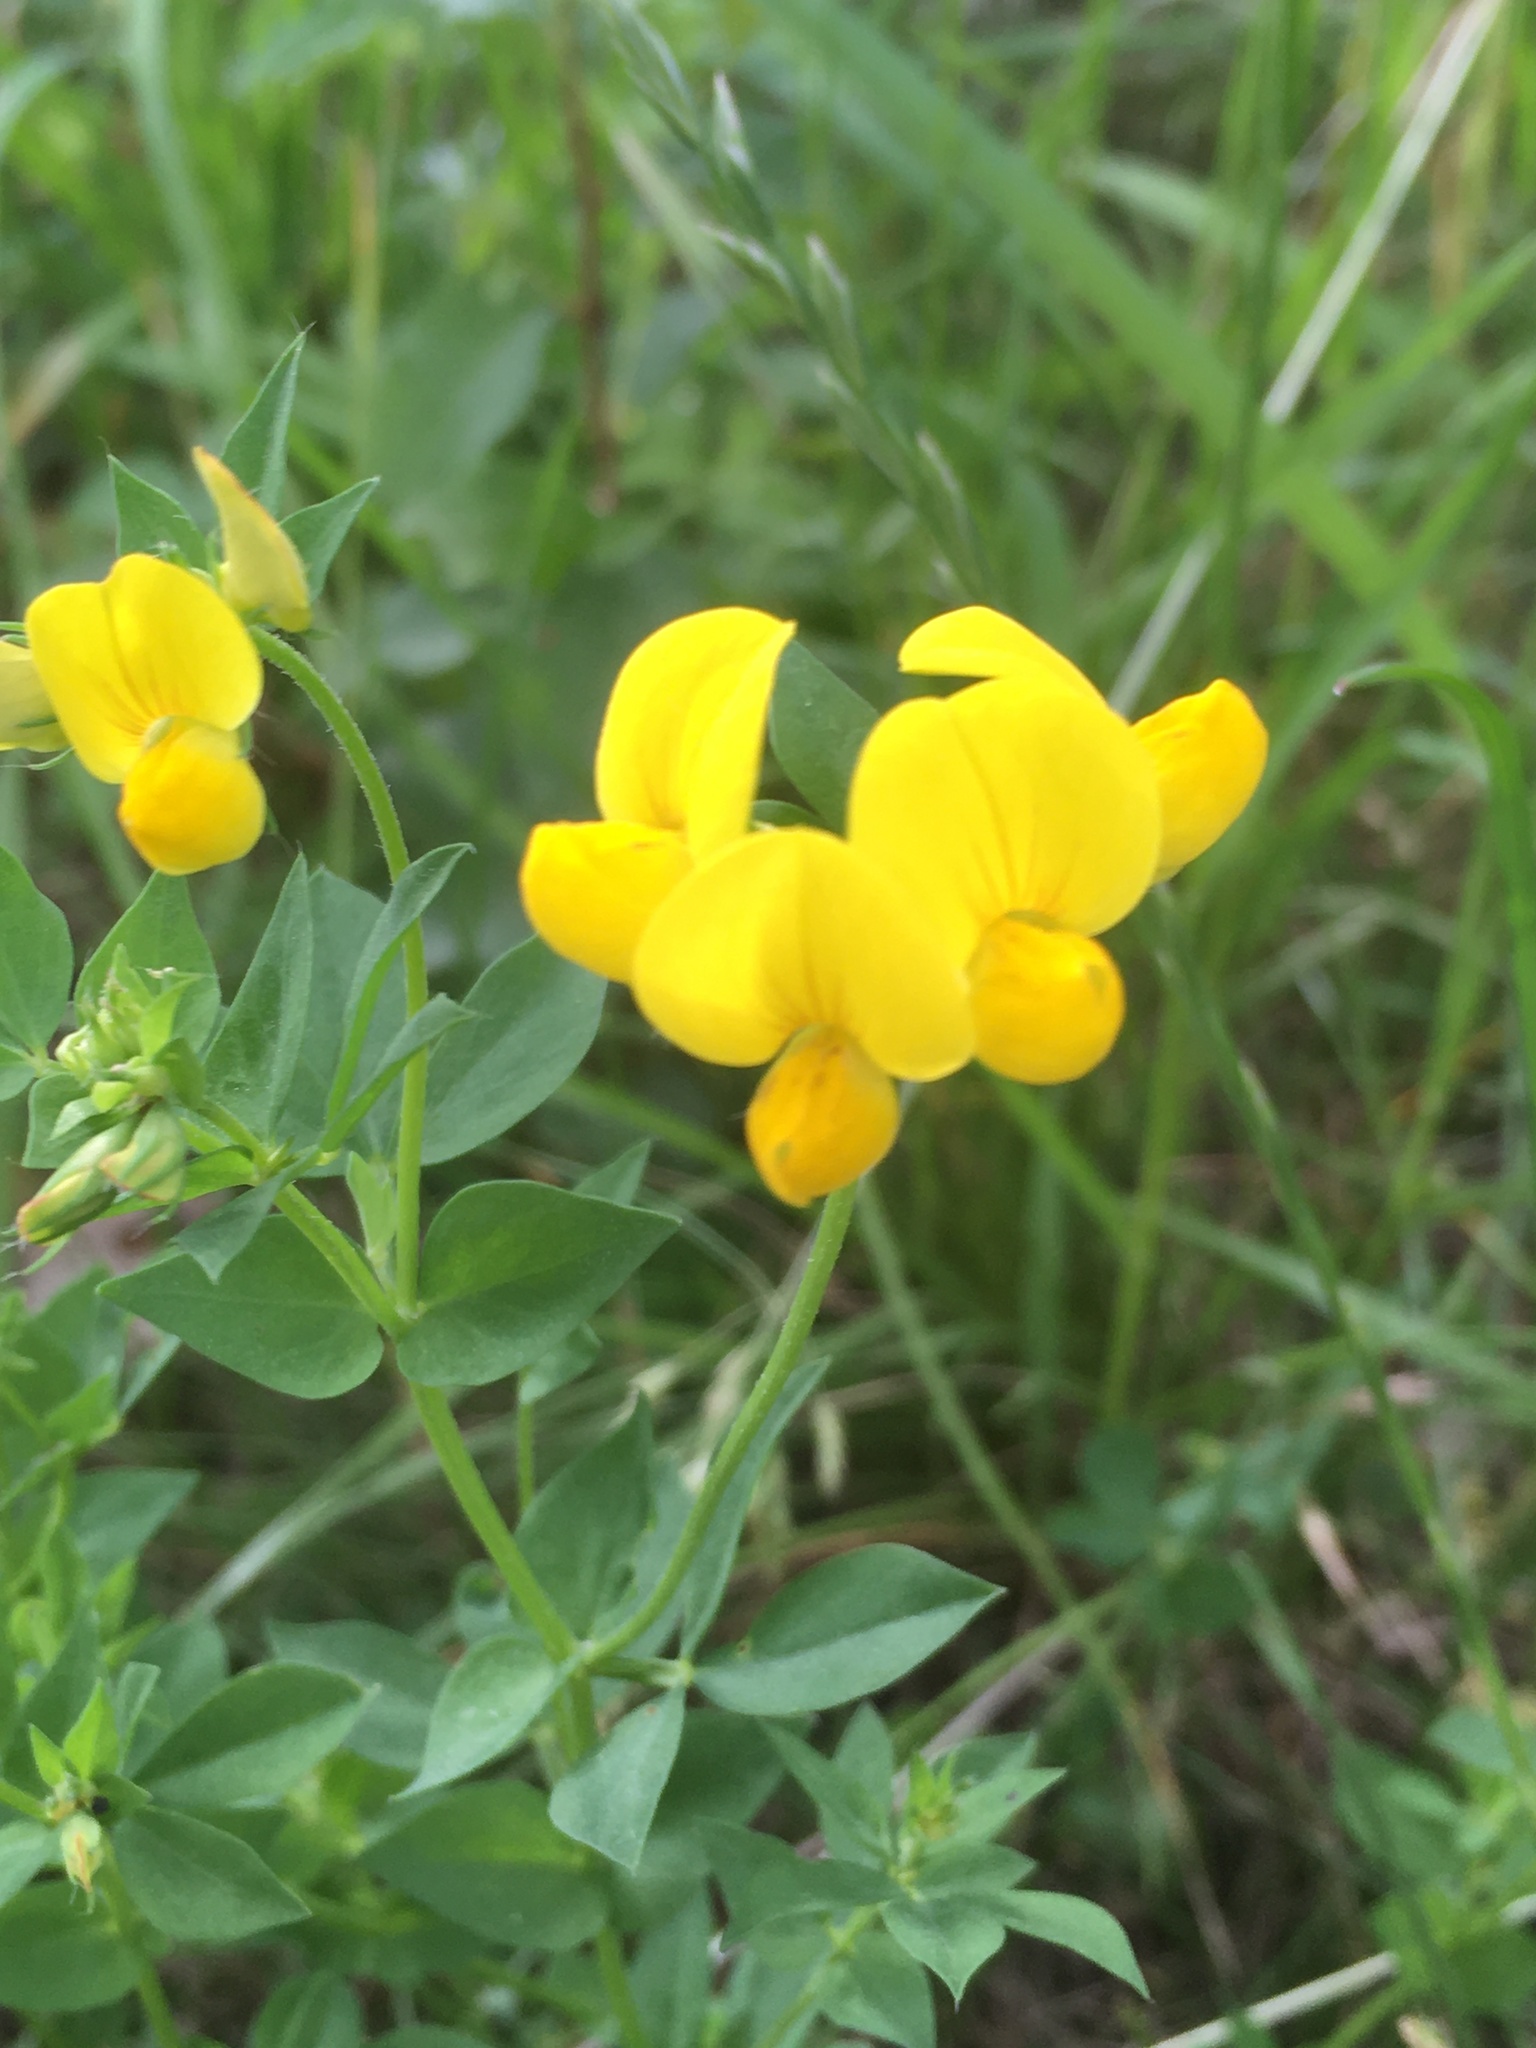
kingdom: Plantae
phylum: Tracheophyta
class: Magnoliopsida
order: Fabales
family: Fabaceae
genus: Lotus
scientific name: Lotus corniculatus
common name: Common bird's-foot-trefoil
